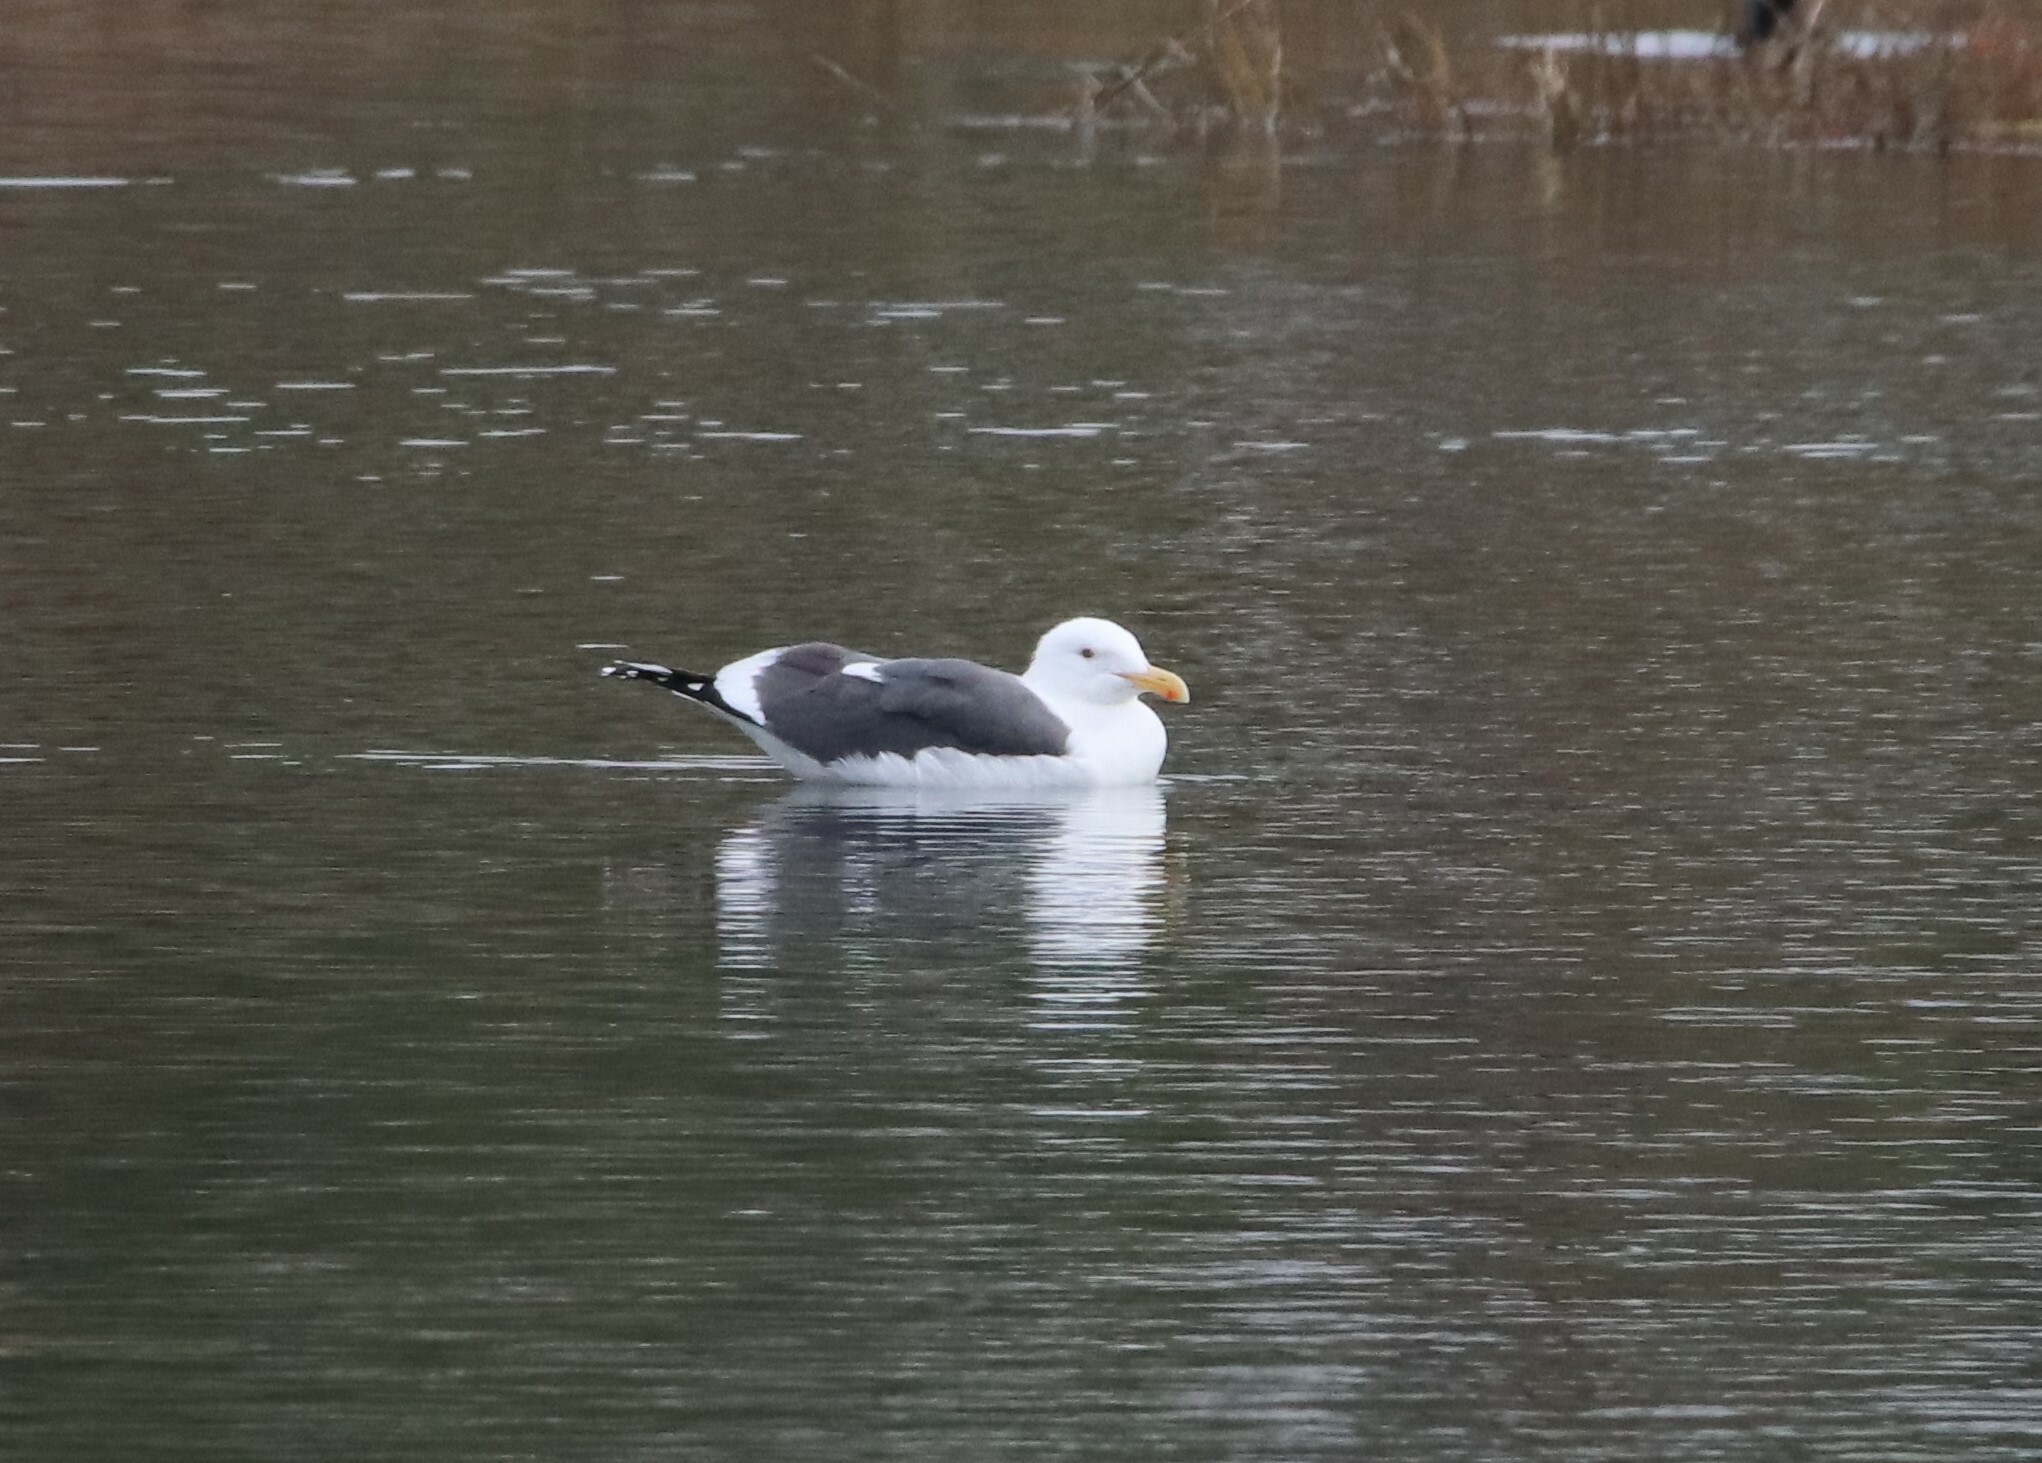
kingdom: Animalia
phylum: Chordata
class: Aves
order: Charadriiformes
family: Laridae
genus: Larus
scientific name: Larus occidentalis
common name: Western gull
